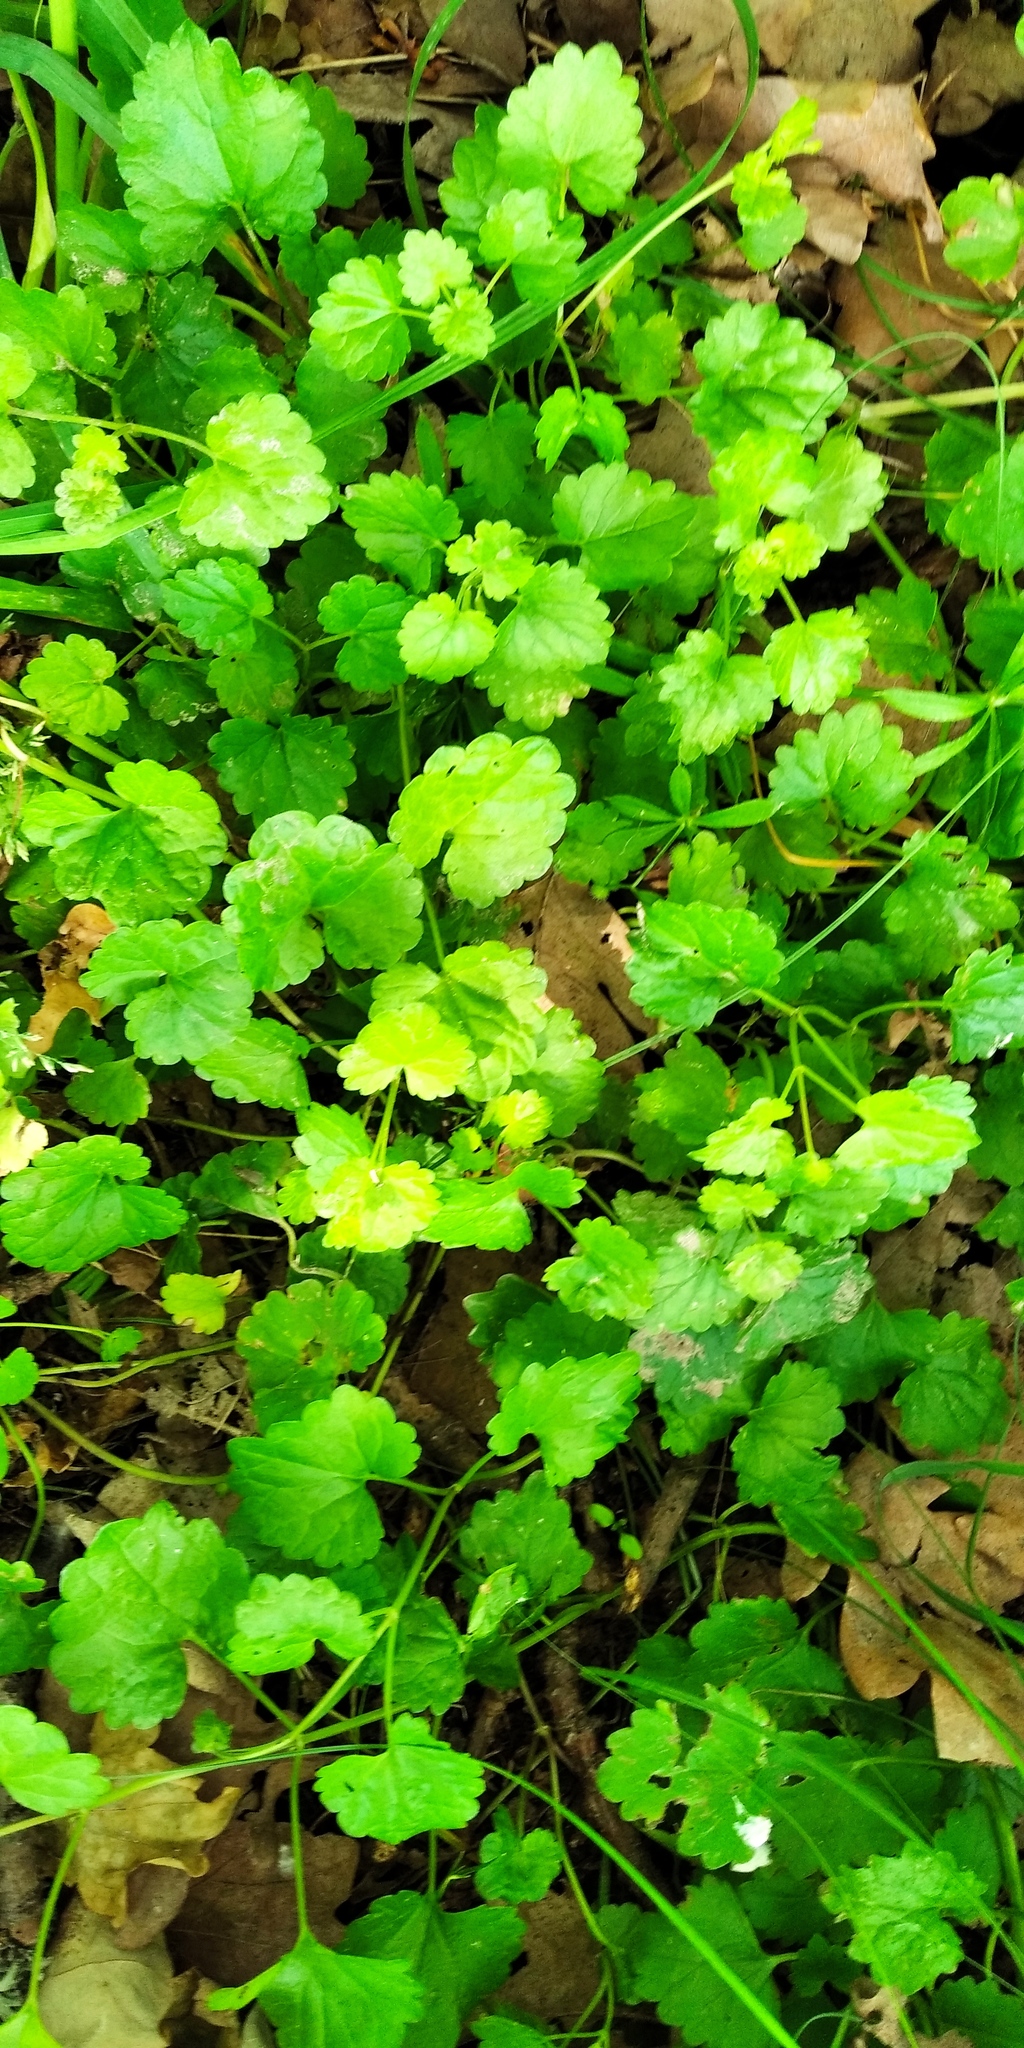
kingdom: Plantae
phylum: Tracheophyta
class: Magnoliopsida
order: Lamiales
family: Lamiaceae
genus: Glechoma
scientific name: Glechoma hederacea
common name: Ground ivy
